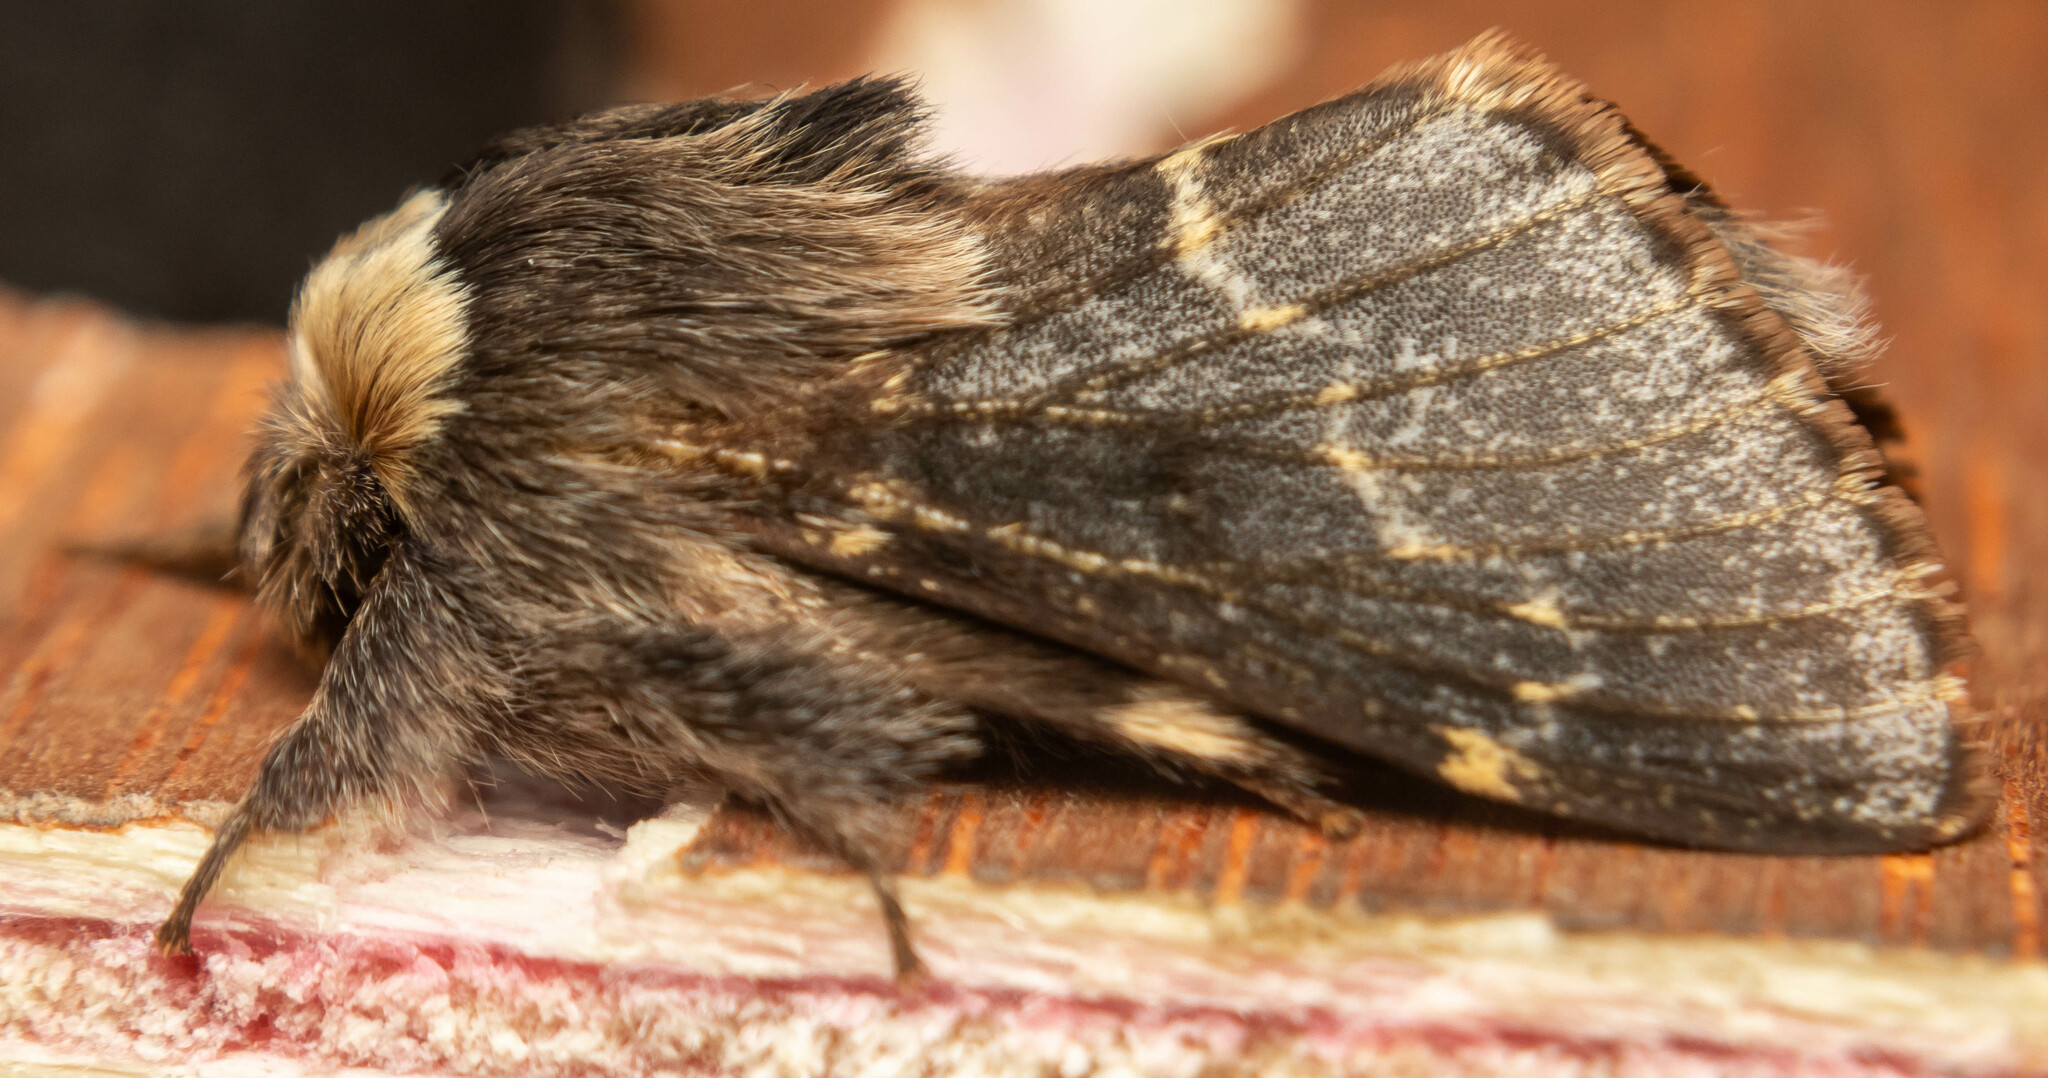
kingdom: Animalia
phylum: Arthropoda
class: Insecta
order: Lepidoptera
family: Lasiocampidae
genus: Poecilocampa
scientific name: Poecilocampa populi
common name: December moth
